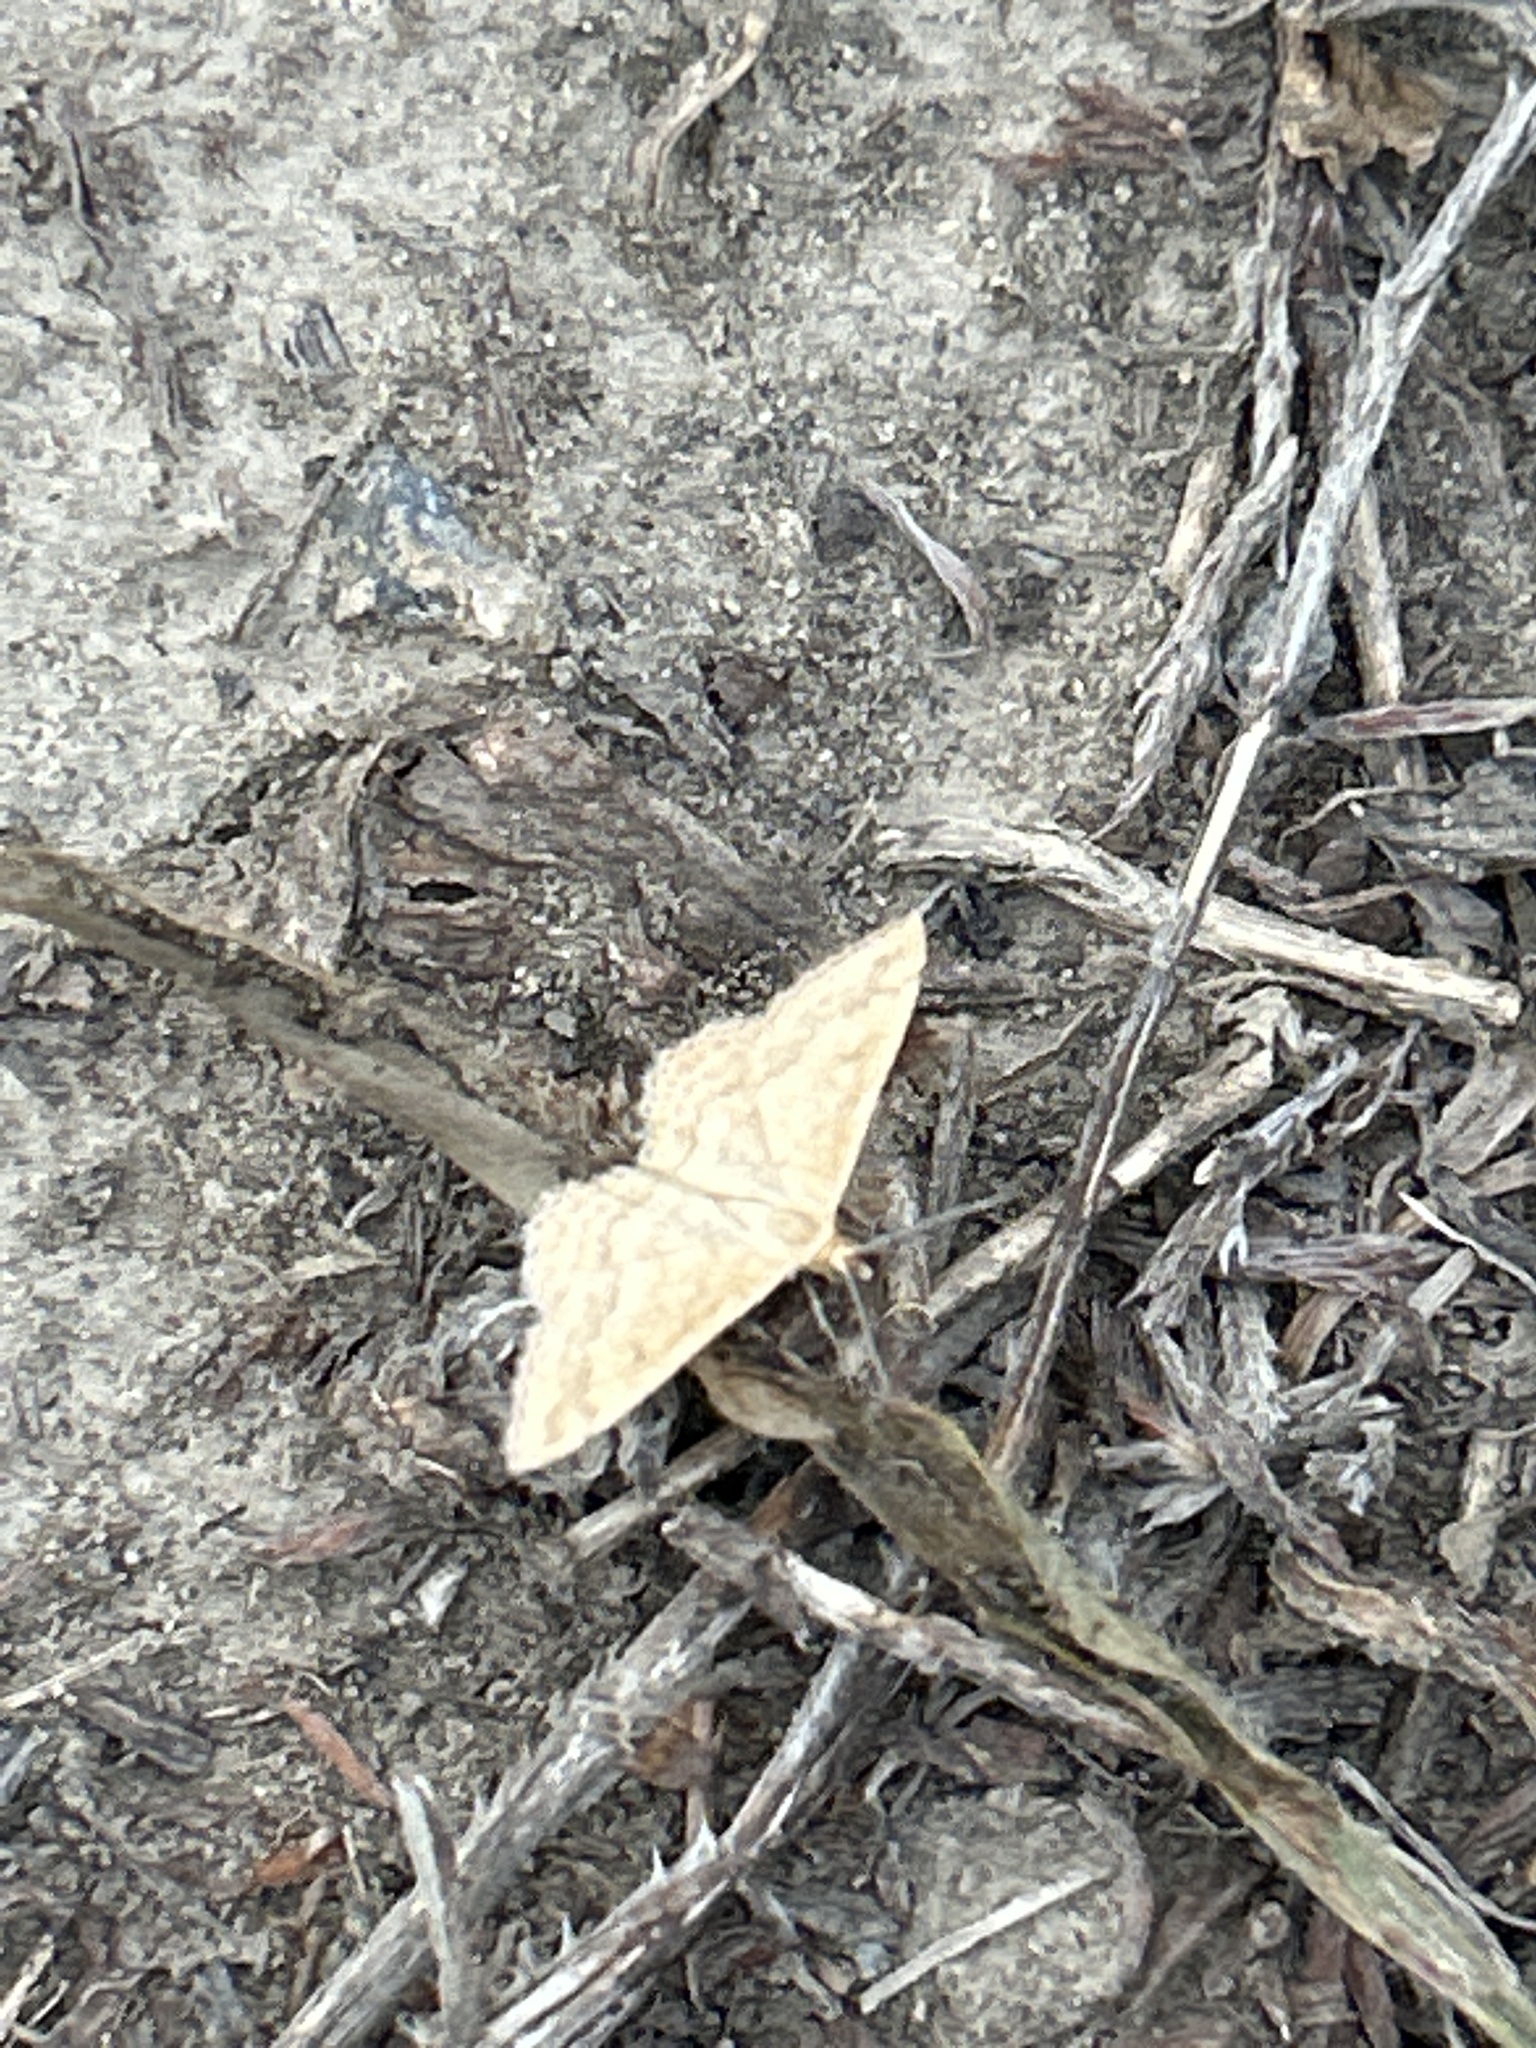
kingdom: Animalia
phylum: Arthropoda
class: Insecta
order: Lepidoptera
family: Geometridae
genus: Scopula
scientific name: Scopula rubraria
